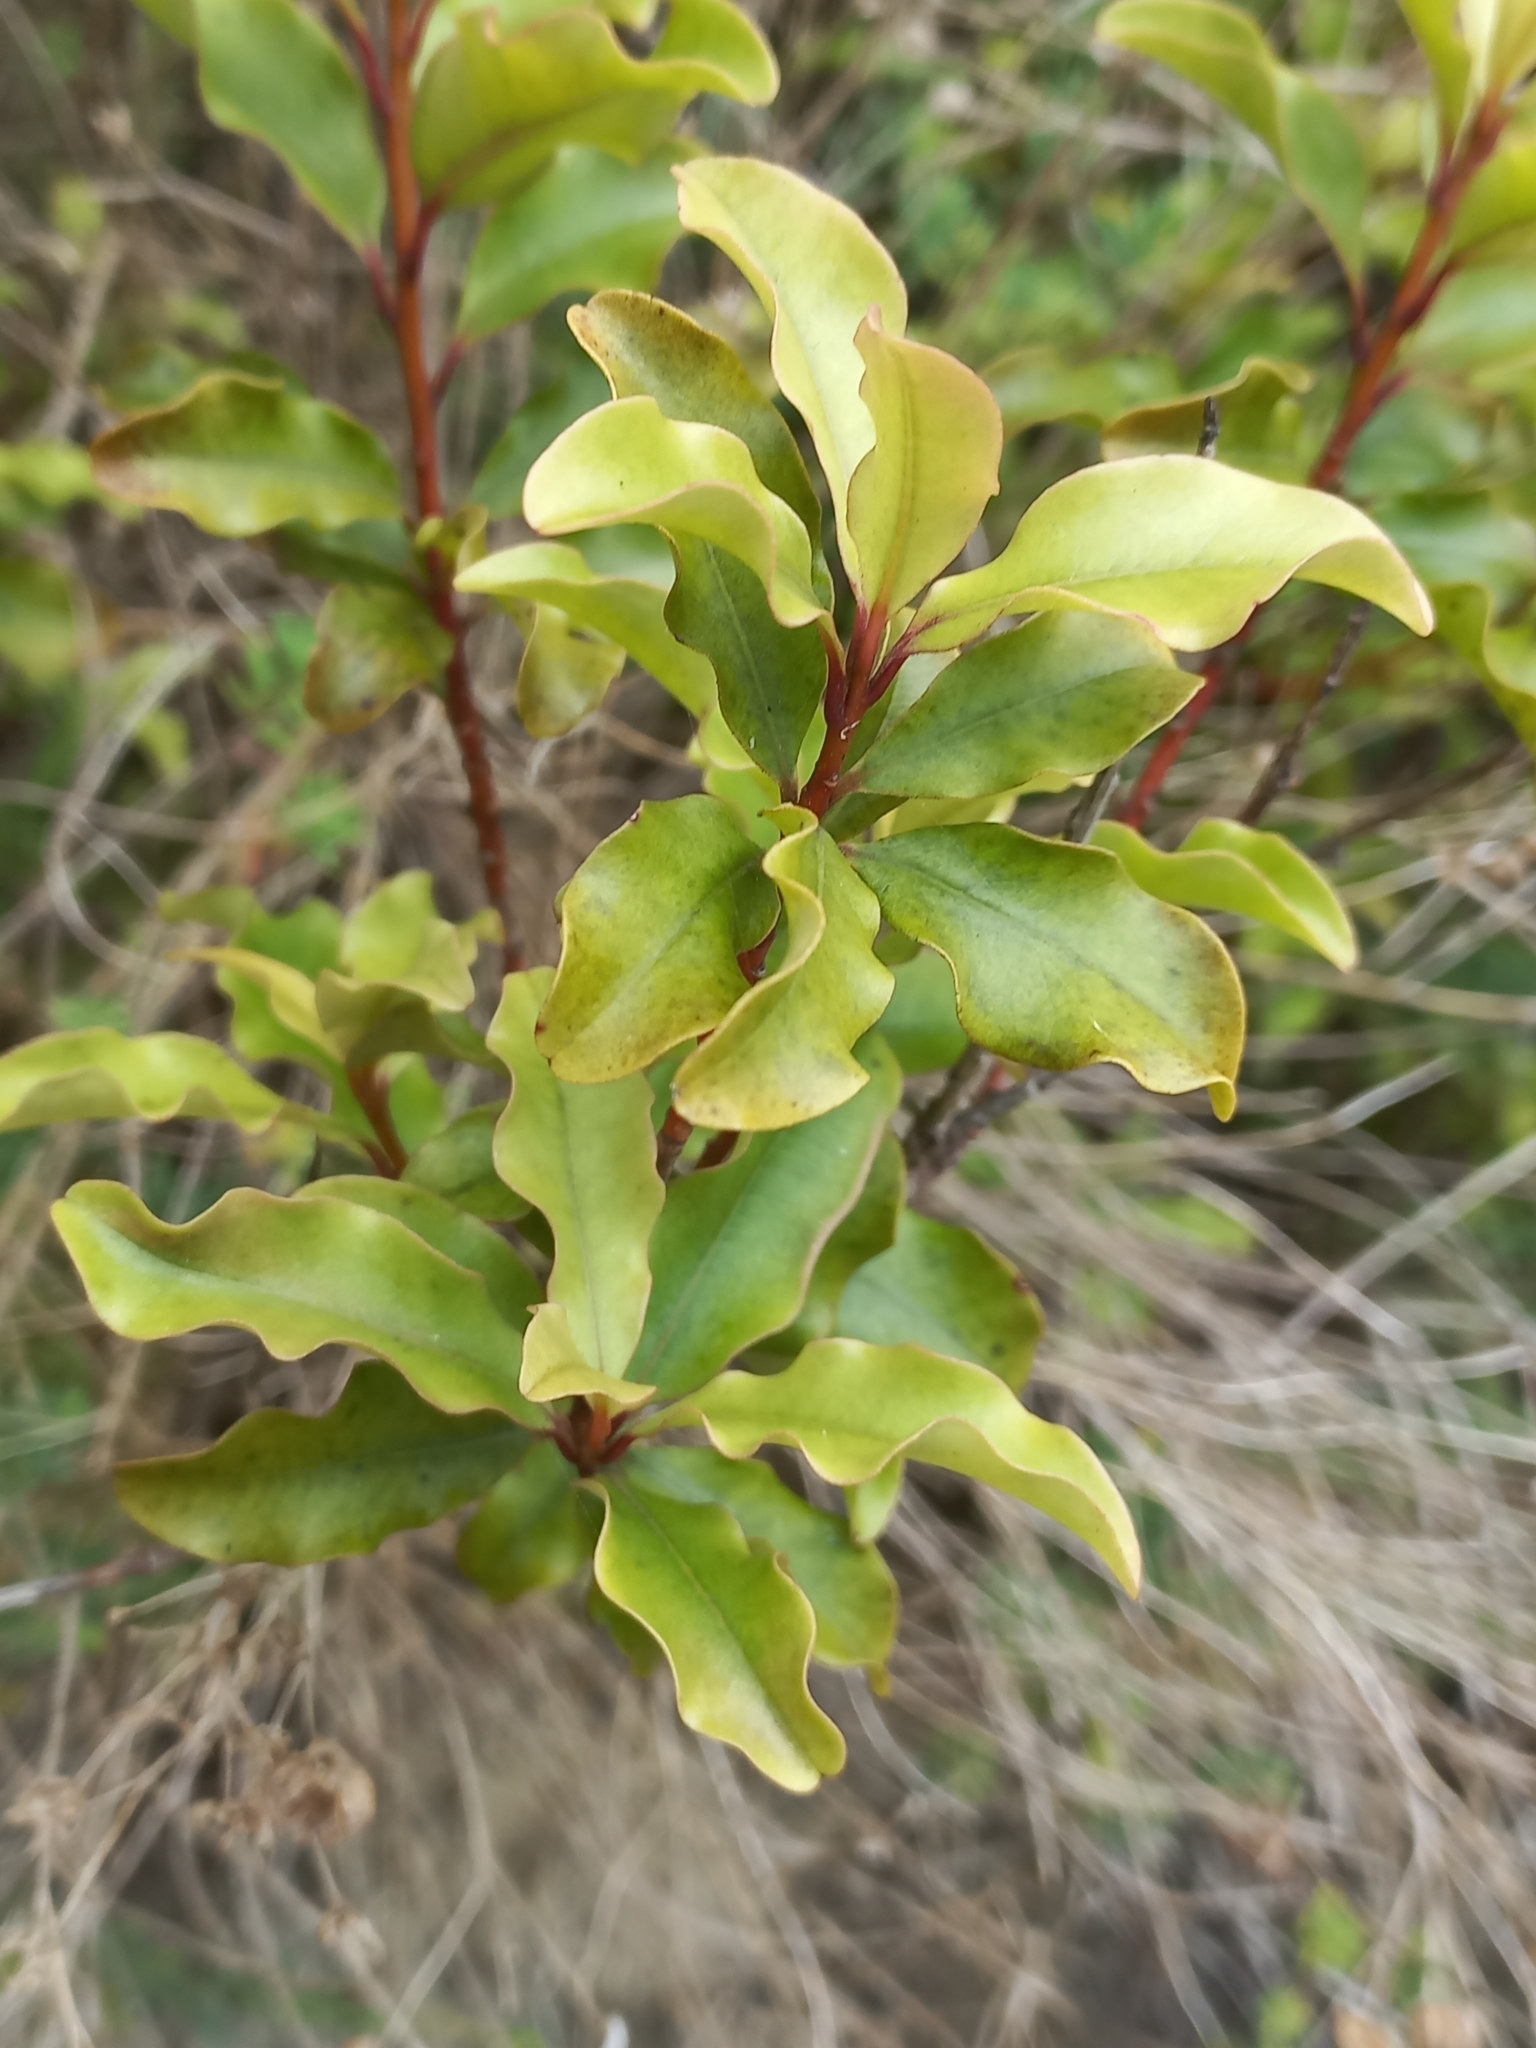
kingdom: Plantae
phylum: Tracheophyta
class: Magnoliopsida
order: Ericales
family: Primulaceae
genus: Myrsine
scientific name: Myrsine australis
